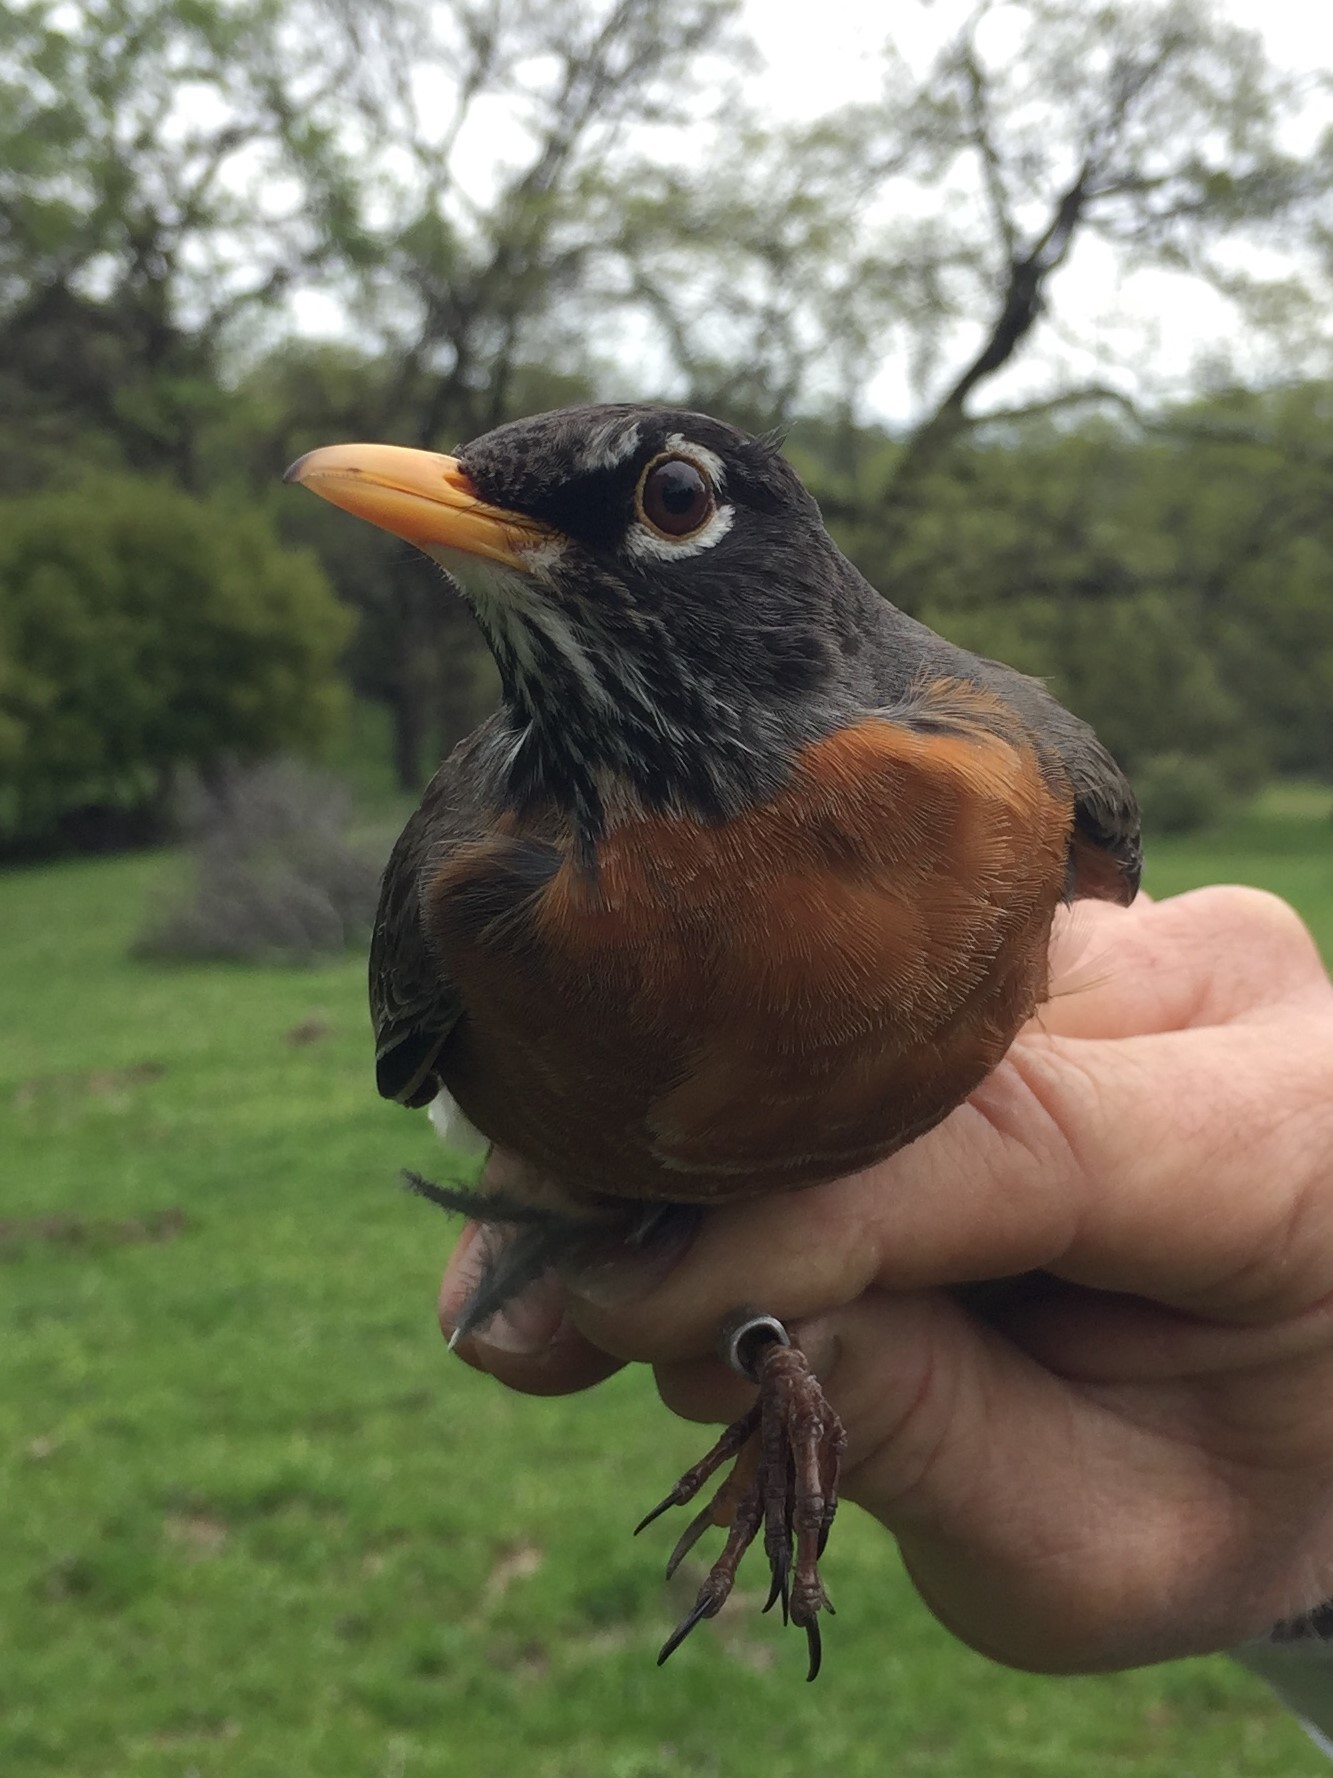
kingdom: Animalia
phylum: Chordata
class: Aves
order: Passeriformes
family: Turdidae
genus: Turdus
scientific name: Turdus migratorius
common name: American robin
